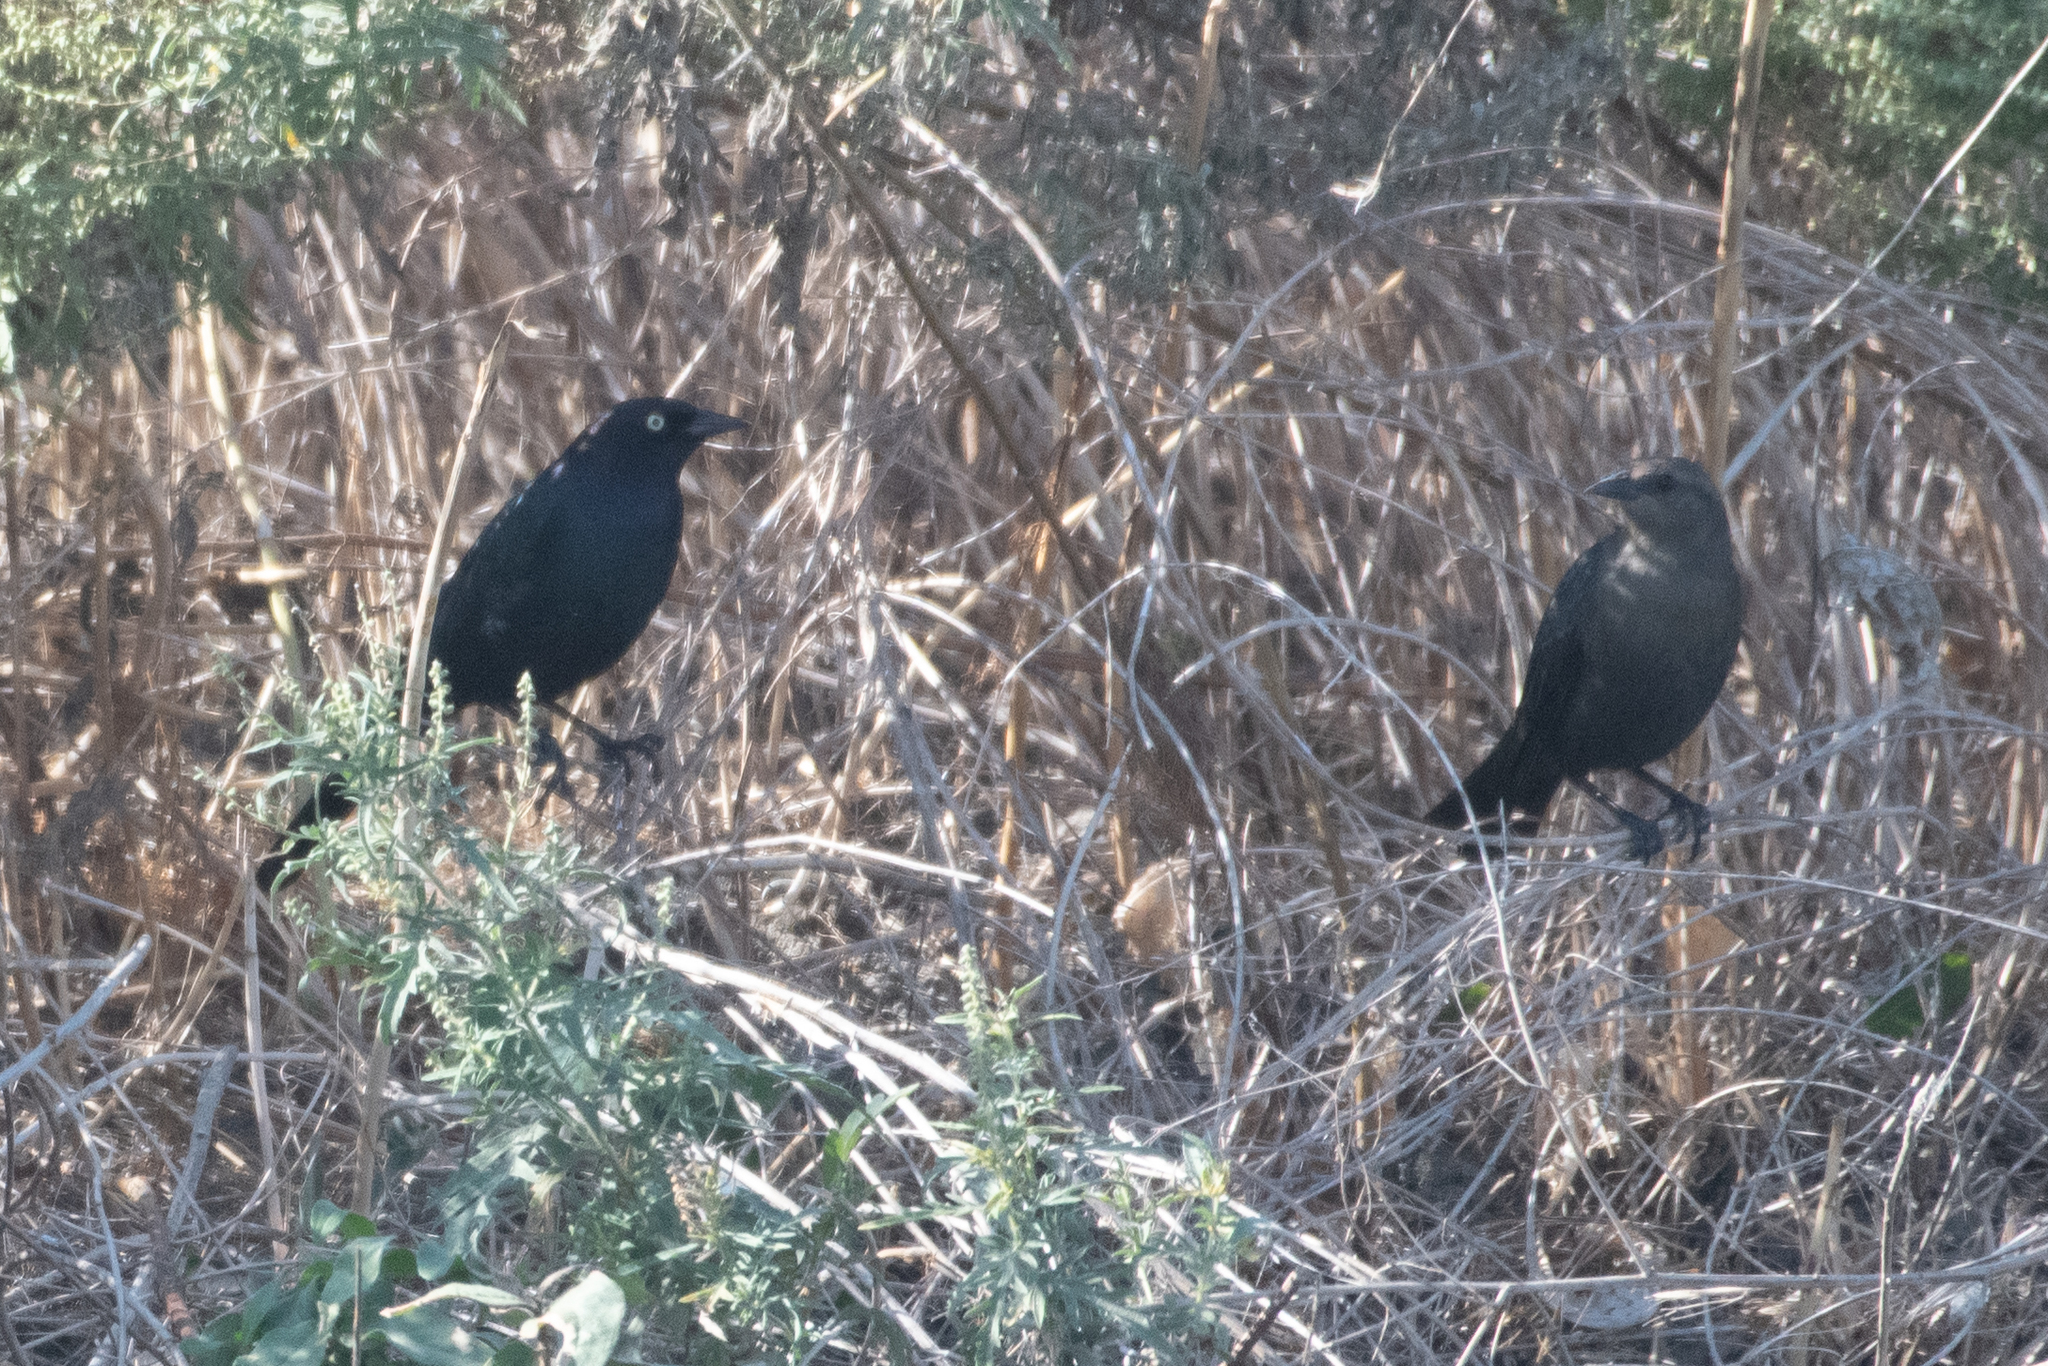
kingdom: Animalia
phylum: Chordata
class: Aves
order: Passeriformes
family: Icteridae
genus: Euphagus
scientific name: Euphagus cyanocephalus
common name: Brewer's blackbird
